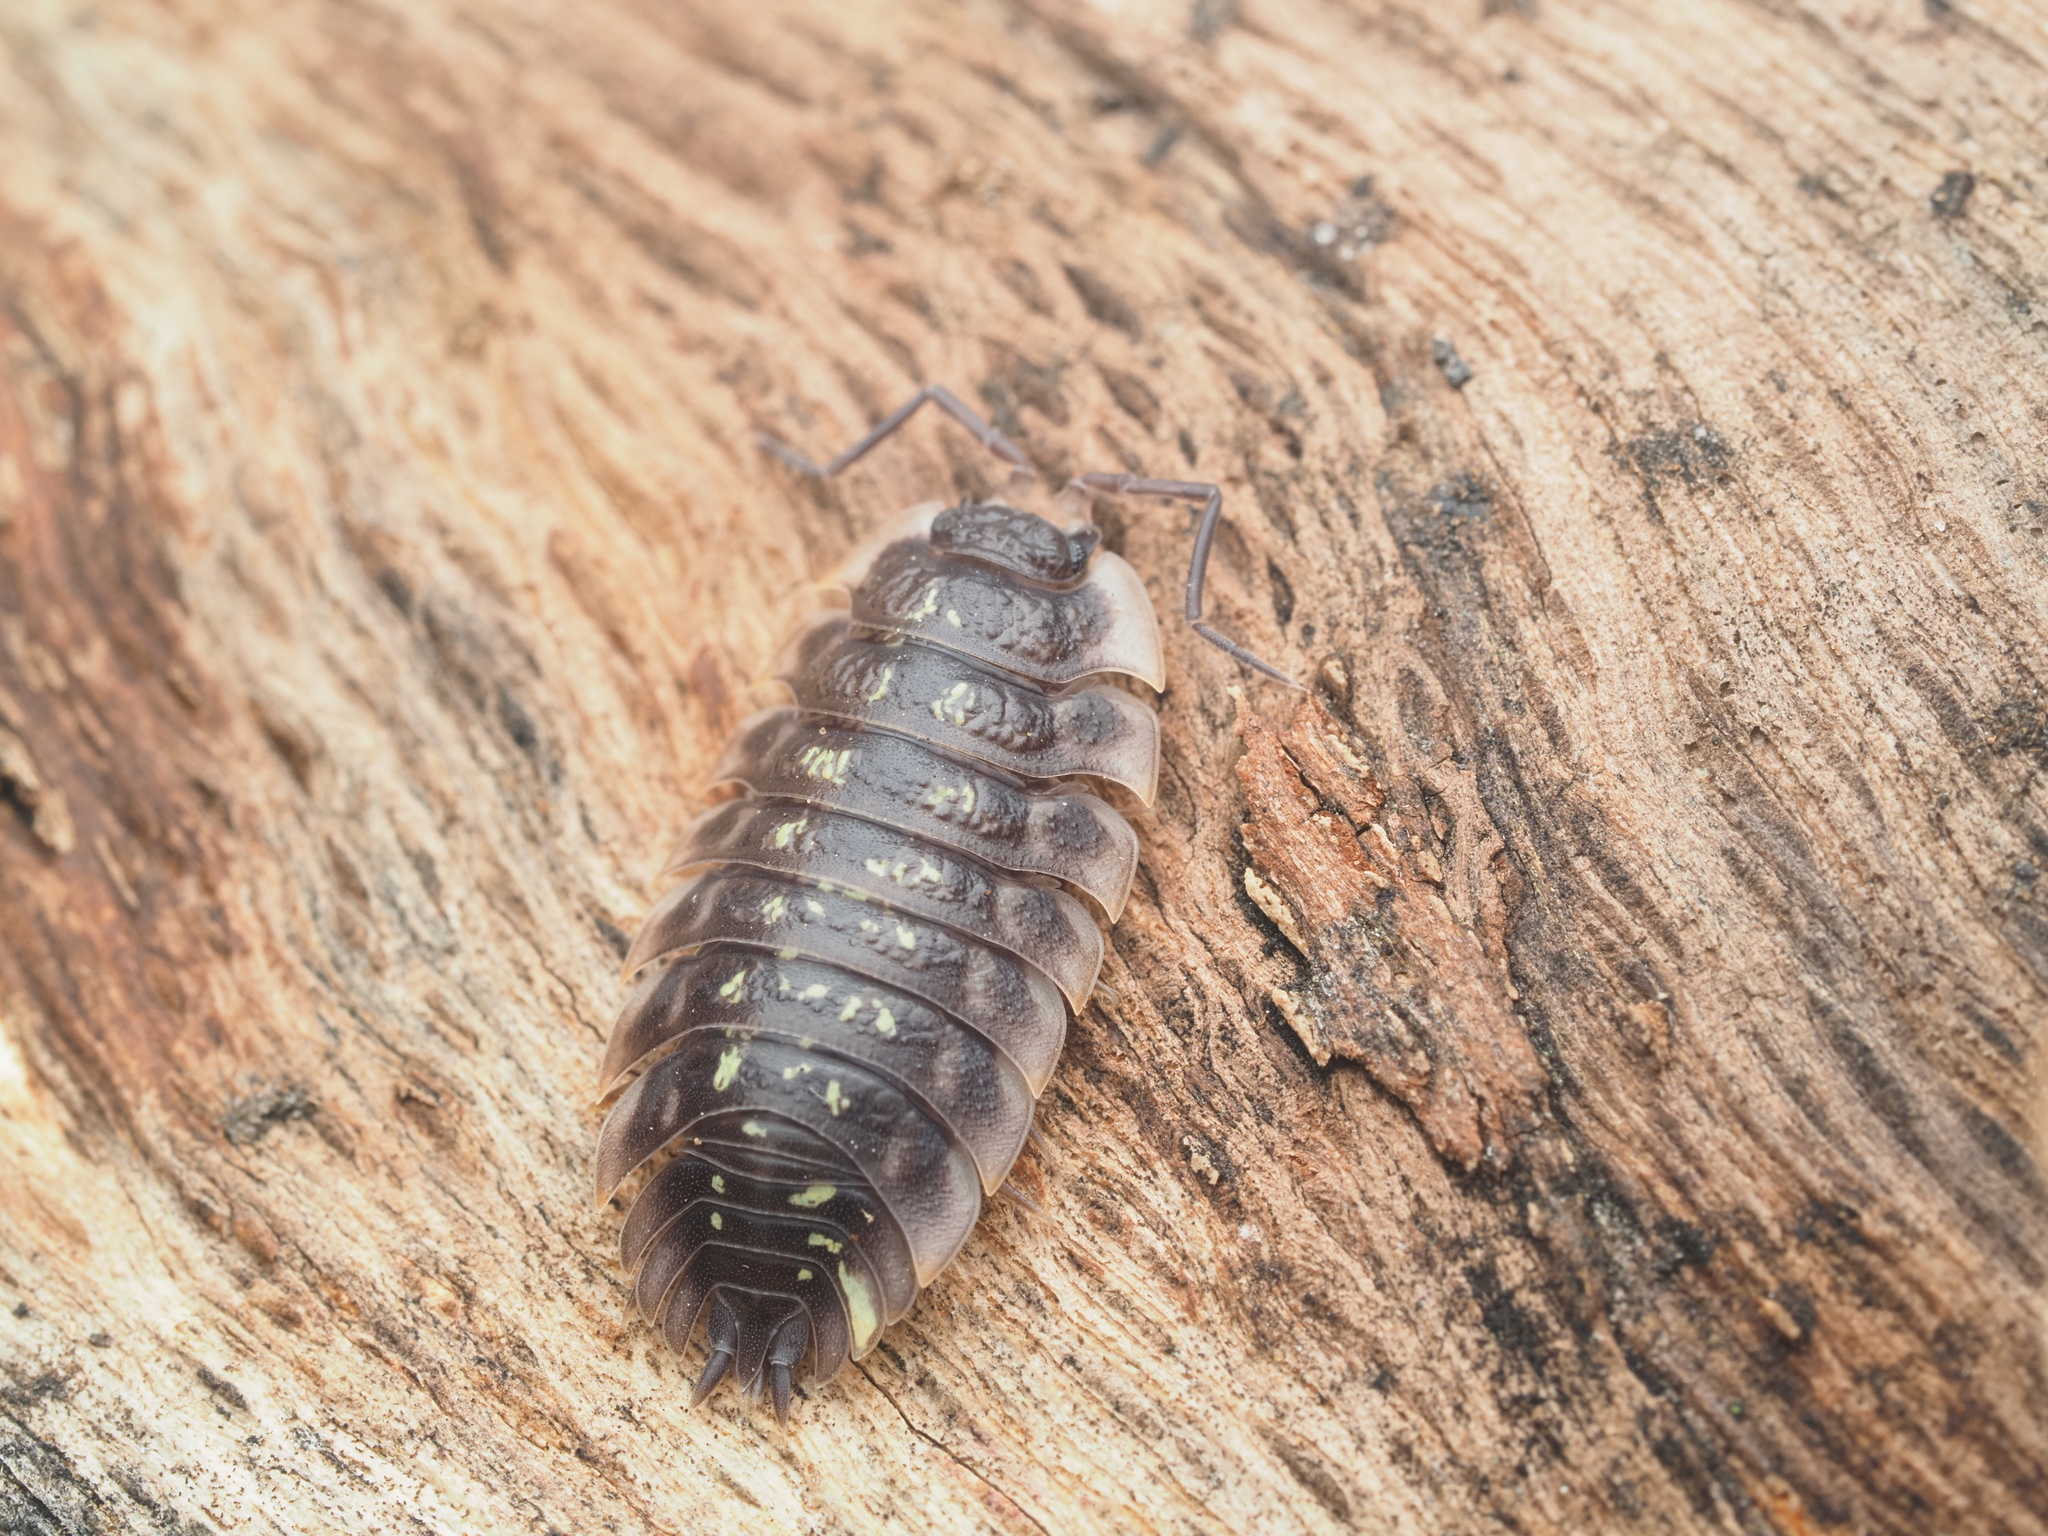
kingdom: Animalia
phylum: Arthropoda
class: Malacostraca
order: Isopoda
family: Oniscidae
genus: Oniscus
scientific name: Oniscus asellus
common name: Common shiny woodlouse
